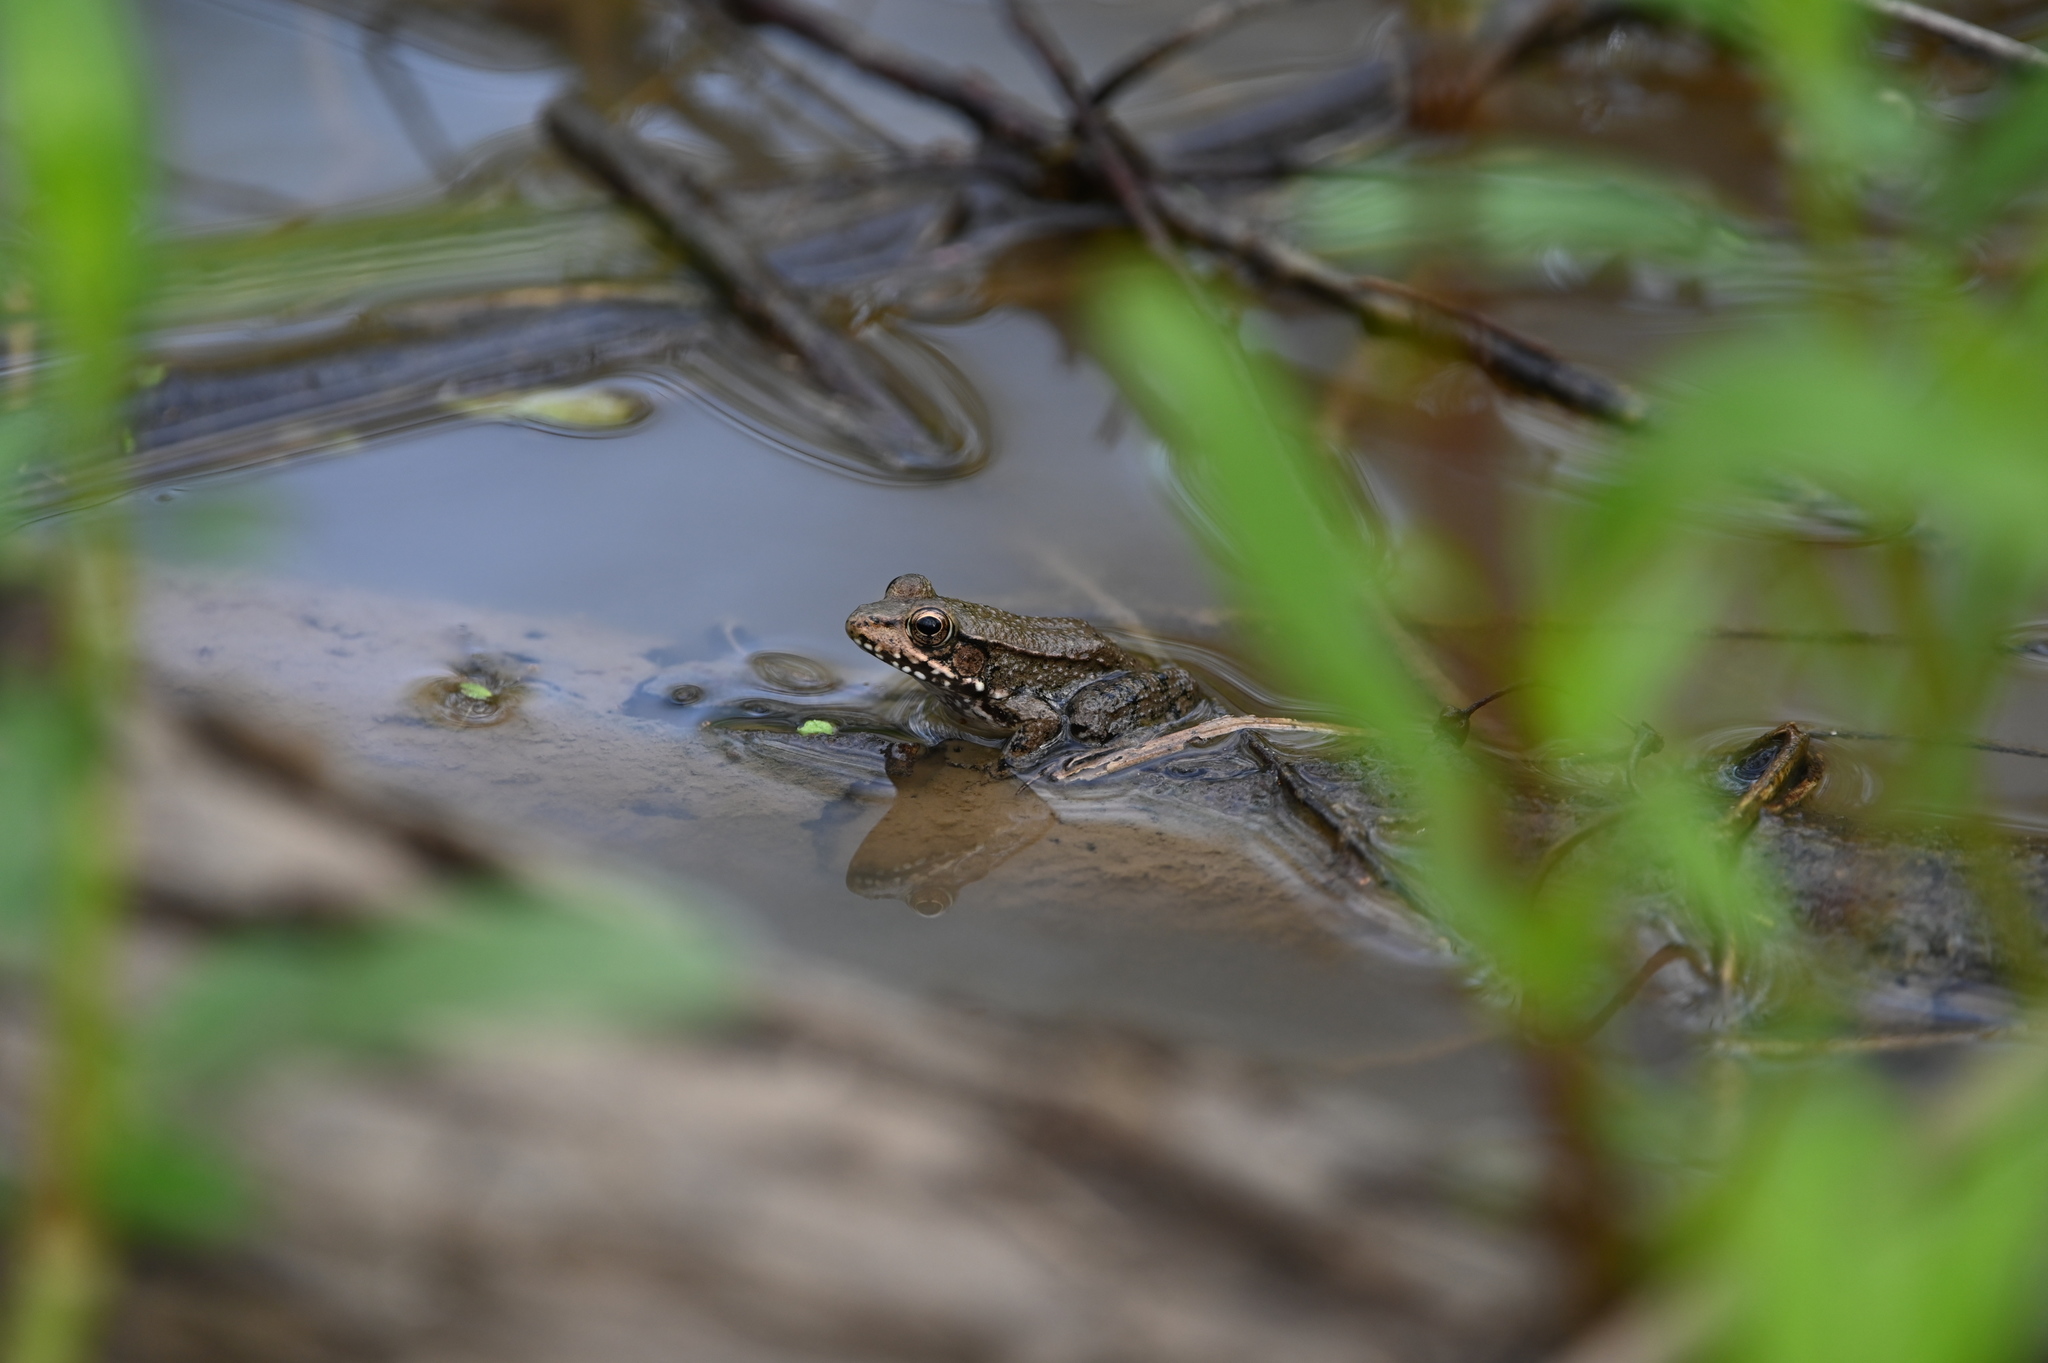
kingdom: Animalia
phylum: Chordata
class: Amphibia
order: Anura
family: Ranidae
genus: Lithobates
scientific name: Lithobates clamitans
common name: Green frog
